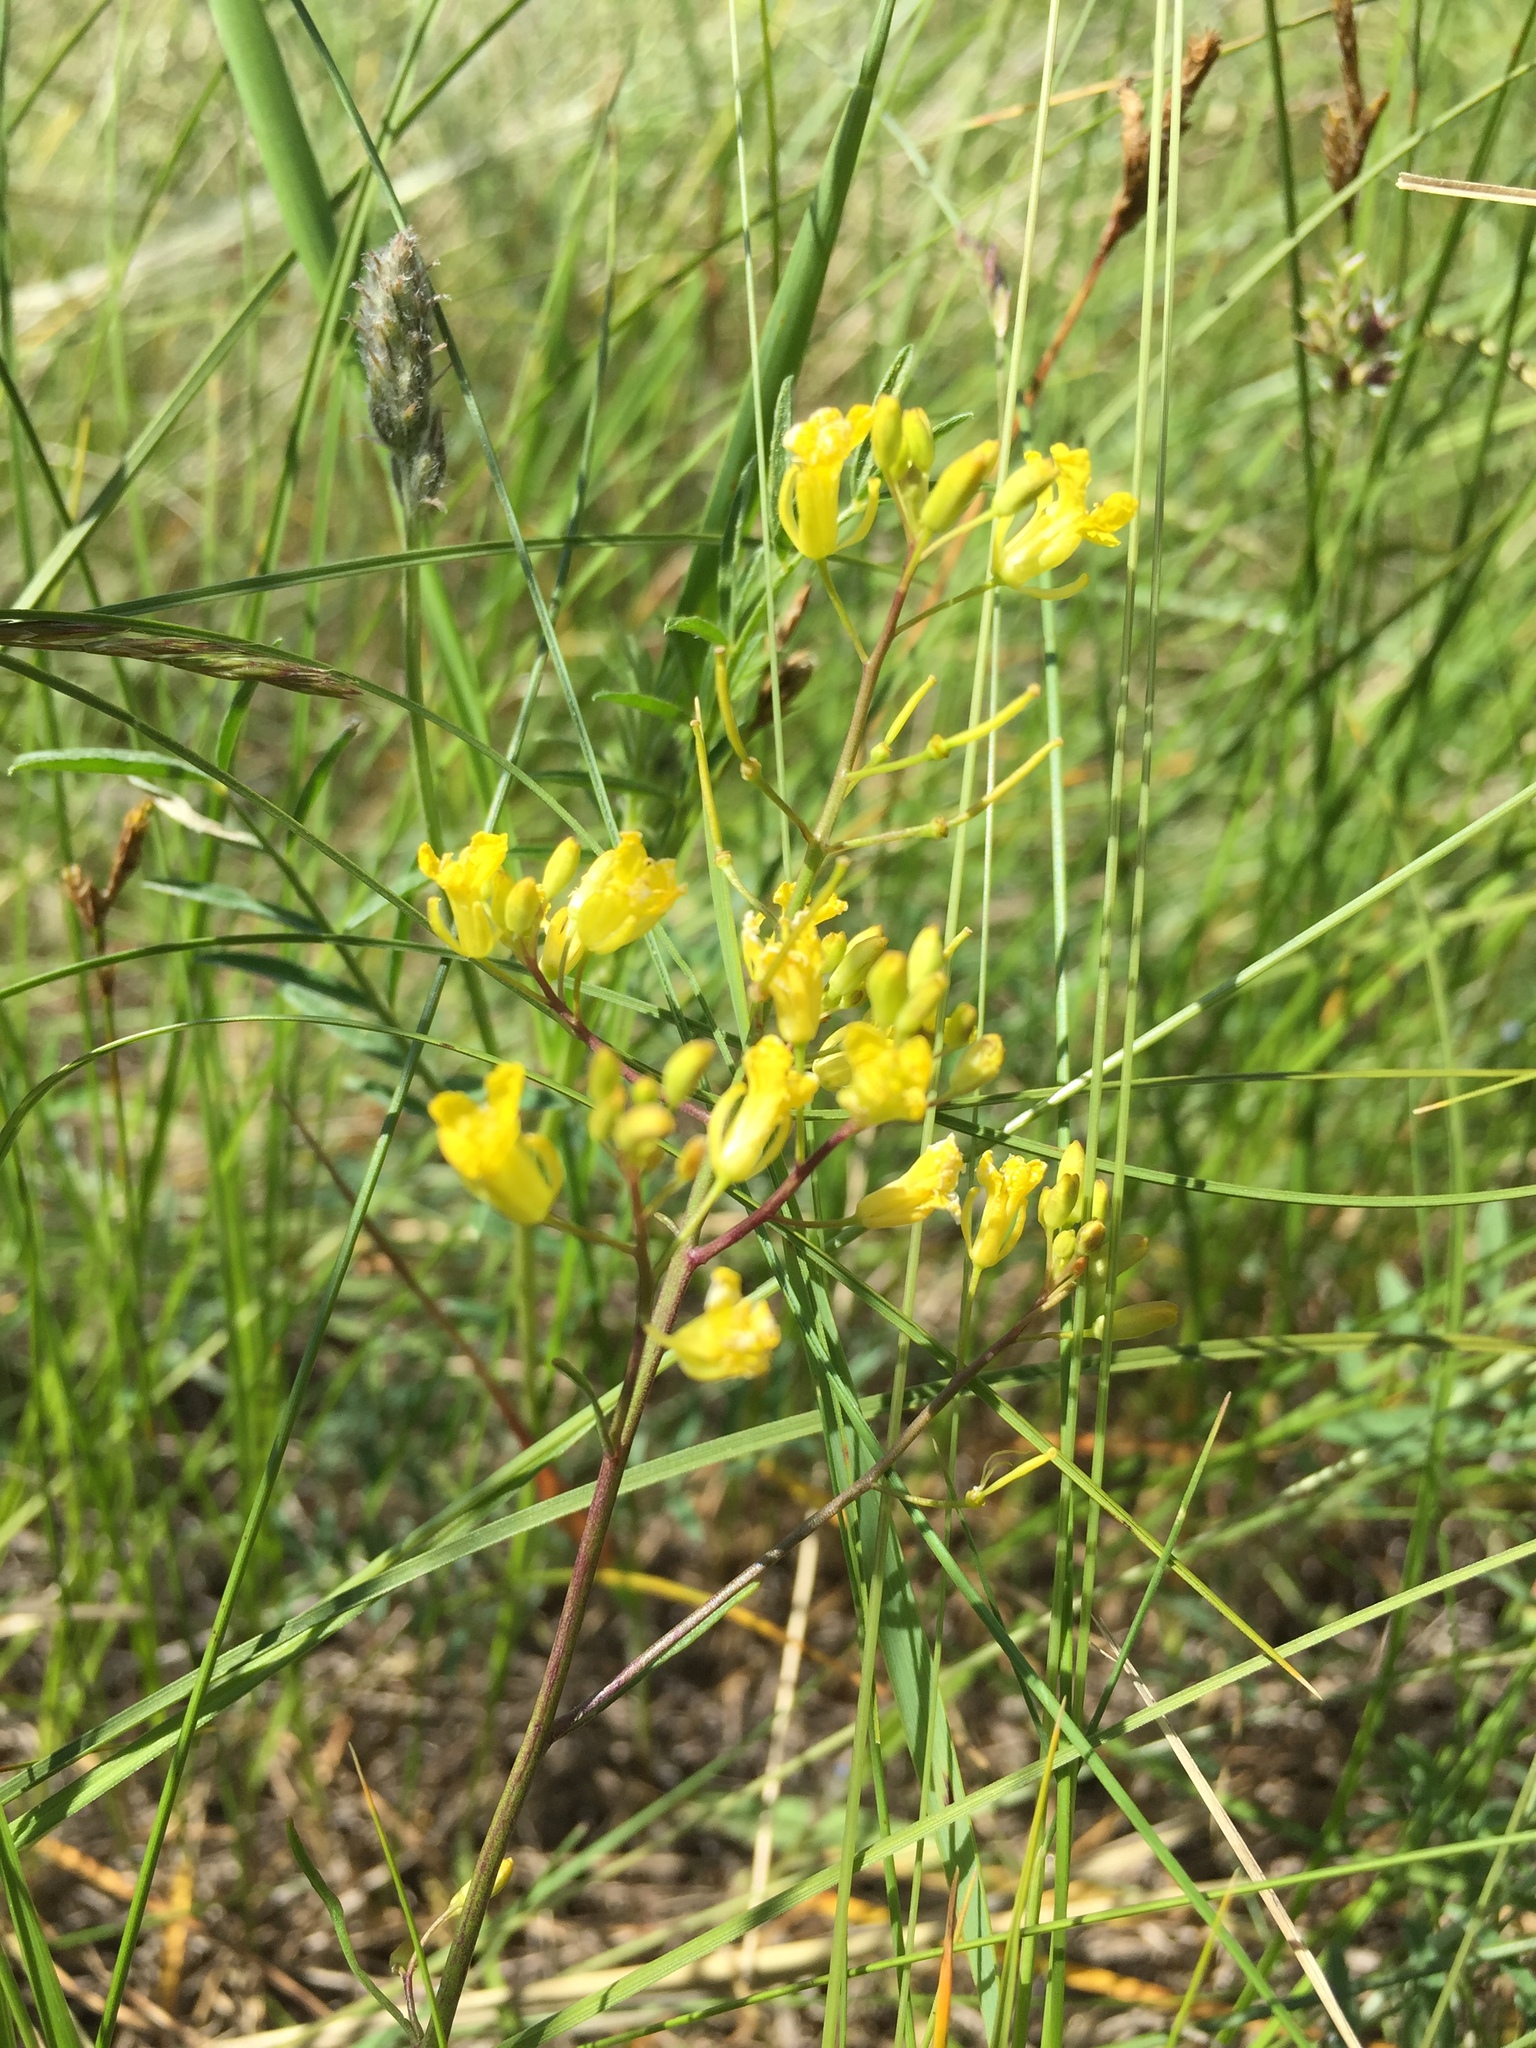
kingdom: Plantae
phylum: Tracheophyta
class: Magnoliopsida
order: Brassicales
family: Brassicaceae
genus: Sisymbrium
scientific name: Sisymbrium polymorphum
